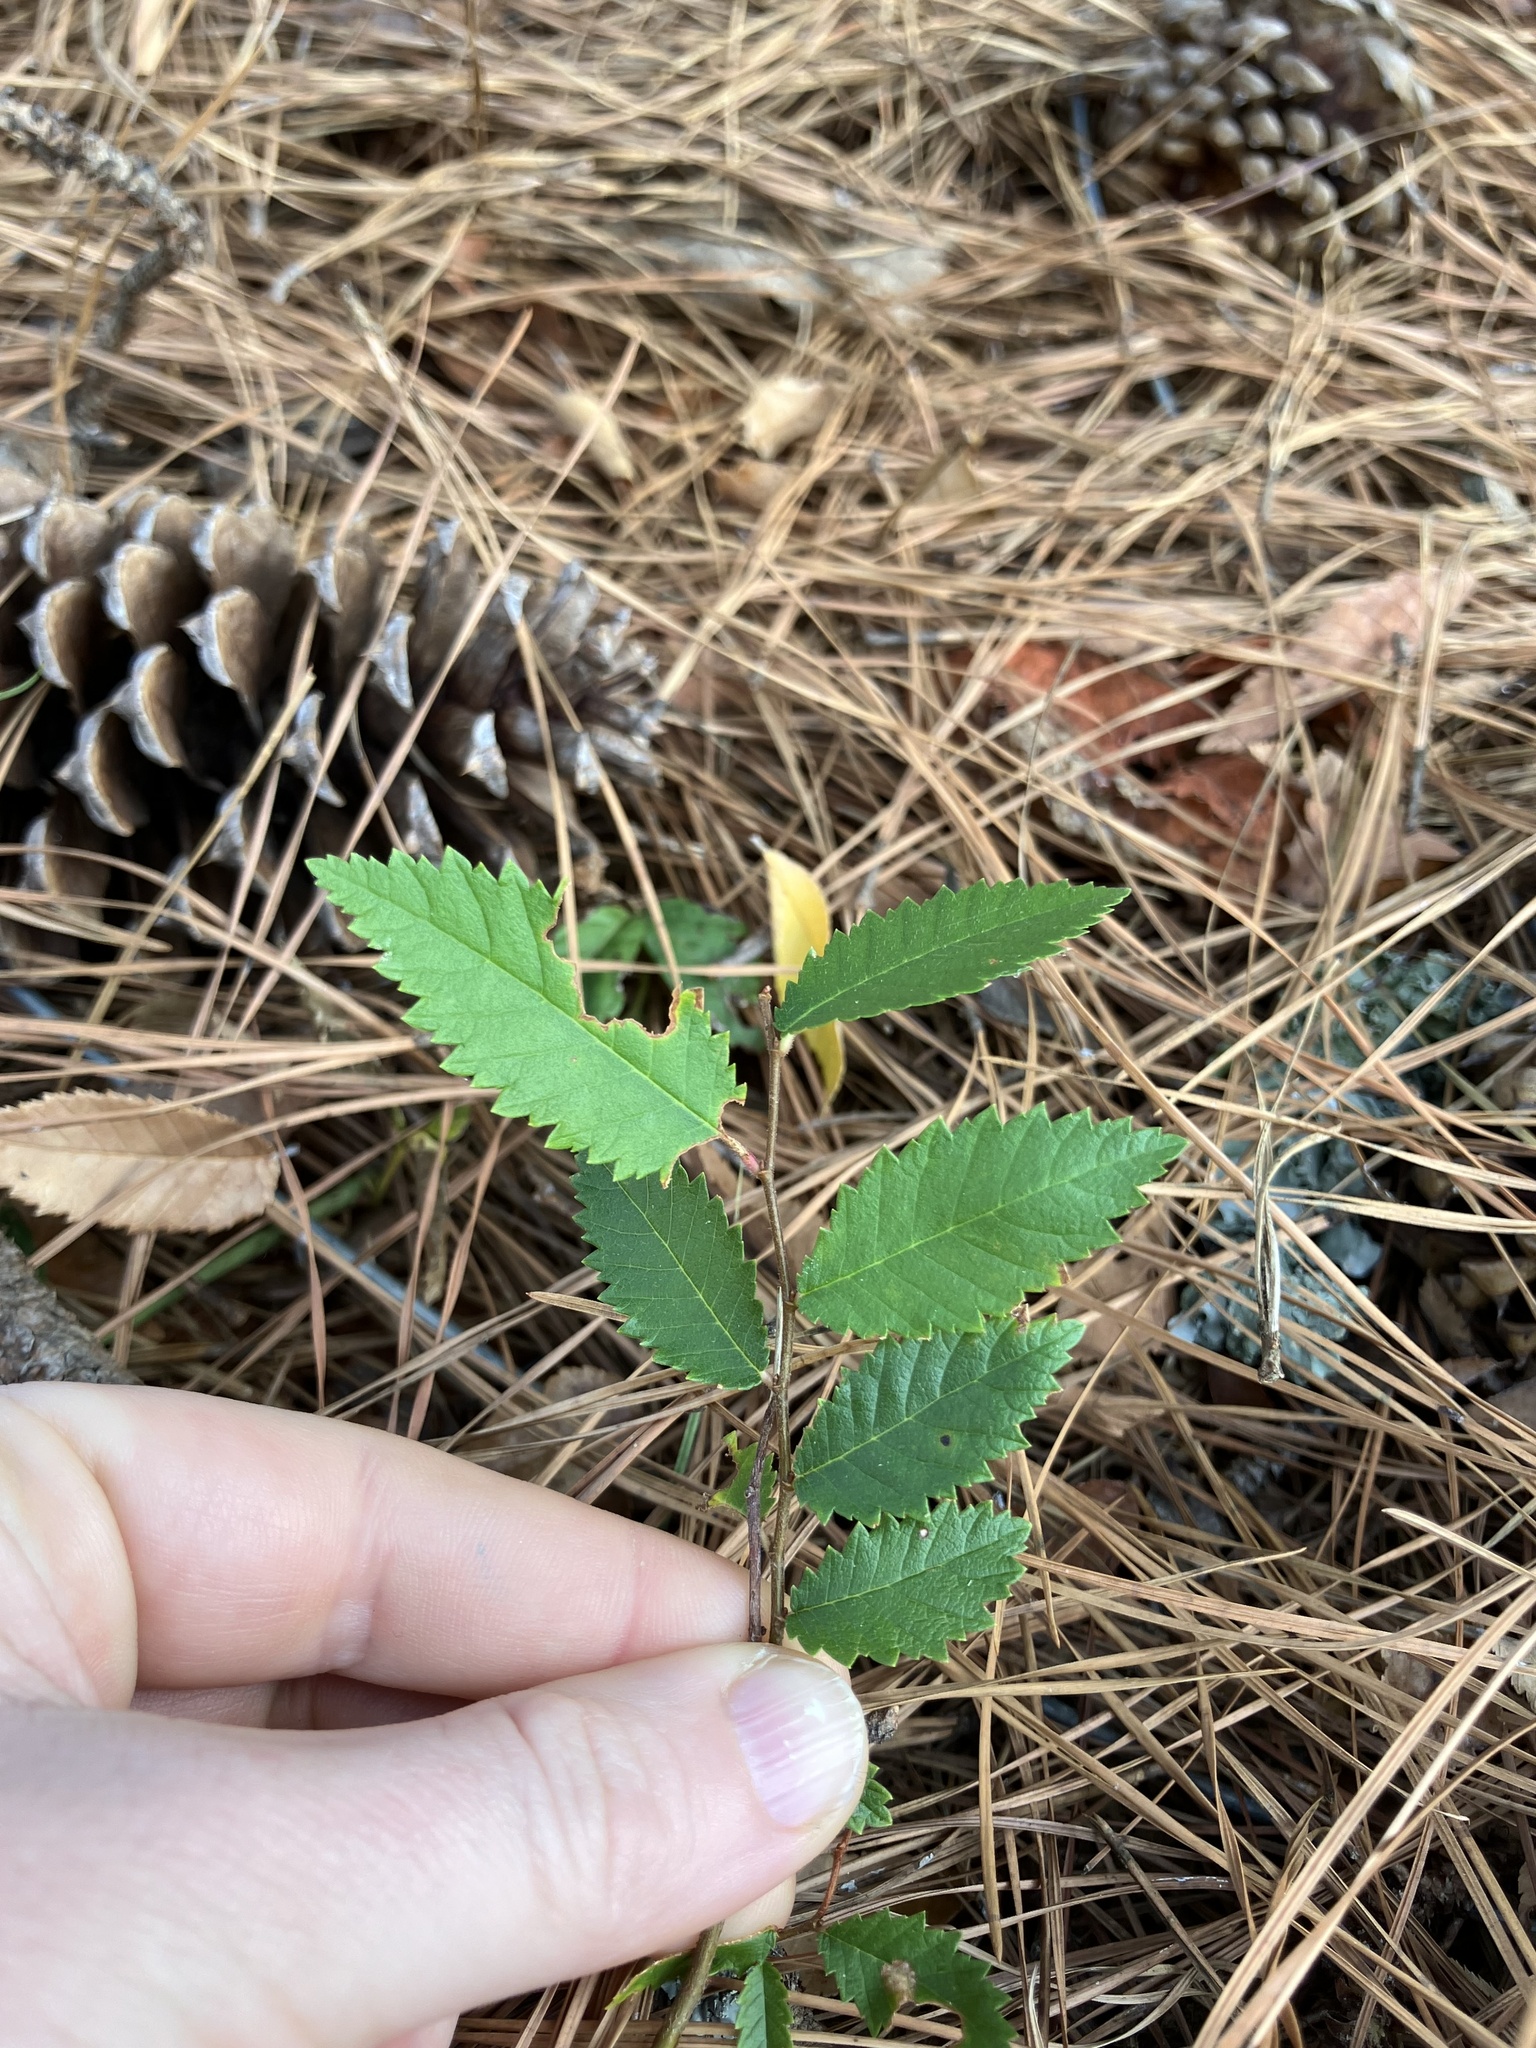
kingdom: Plantae
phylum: Tracheophyta
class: Magnoliopsida
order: Rosales
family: Ulmaceae
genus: Ulmus
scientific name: Ulmus alata
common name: Winged elm
